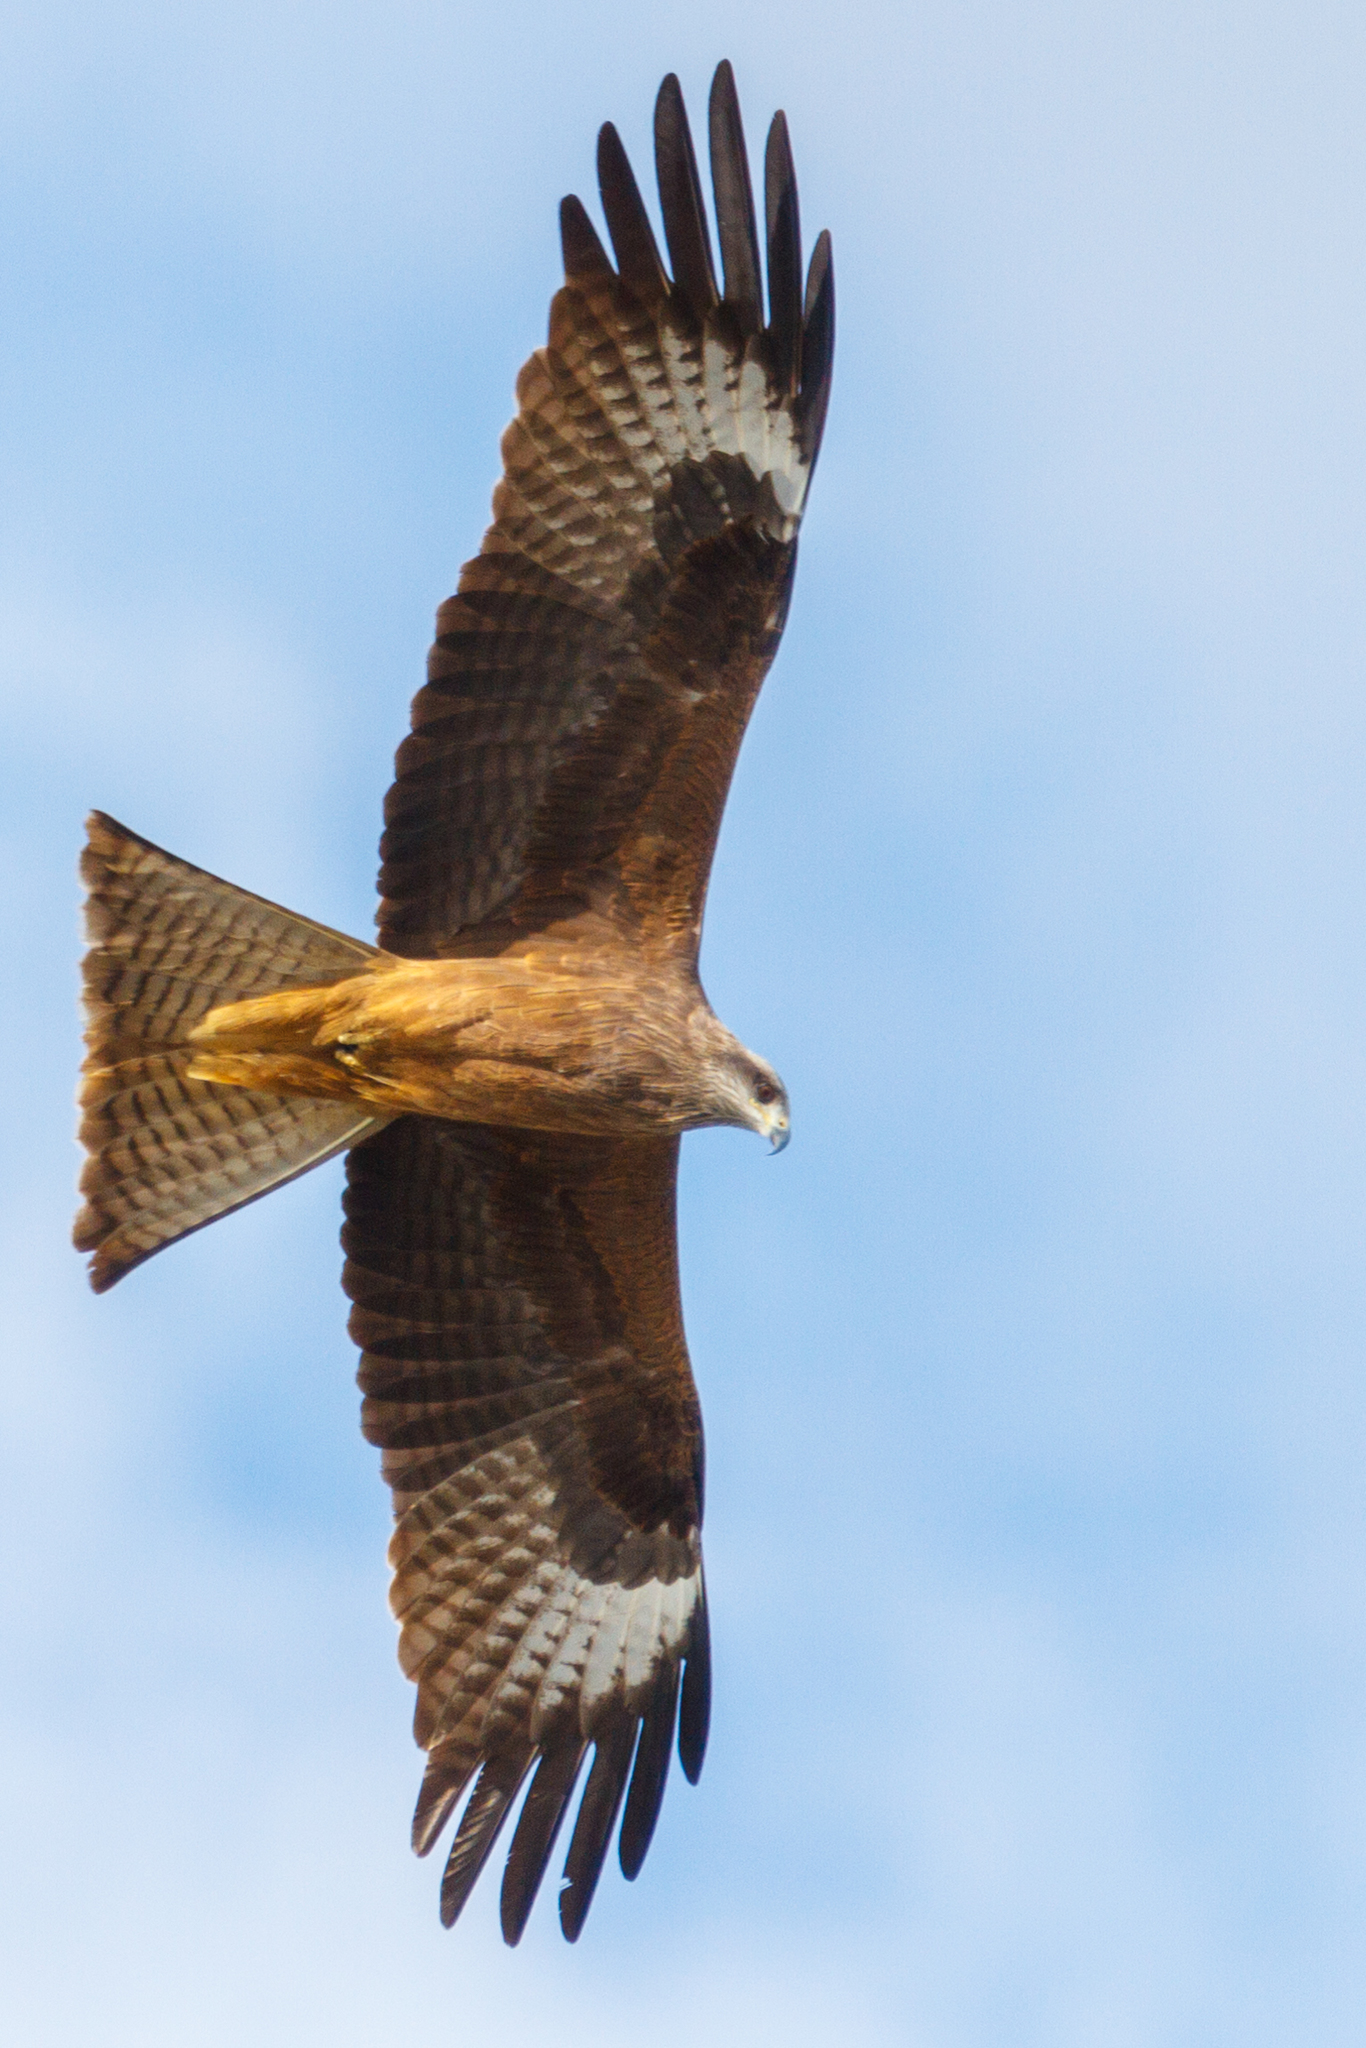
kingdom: Animalia
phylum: Chordata
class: Aves
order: Accipitriformes
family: Accipitridae
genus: Milvus
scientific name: Milvus migrans
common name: Black kite
